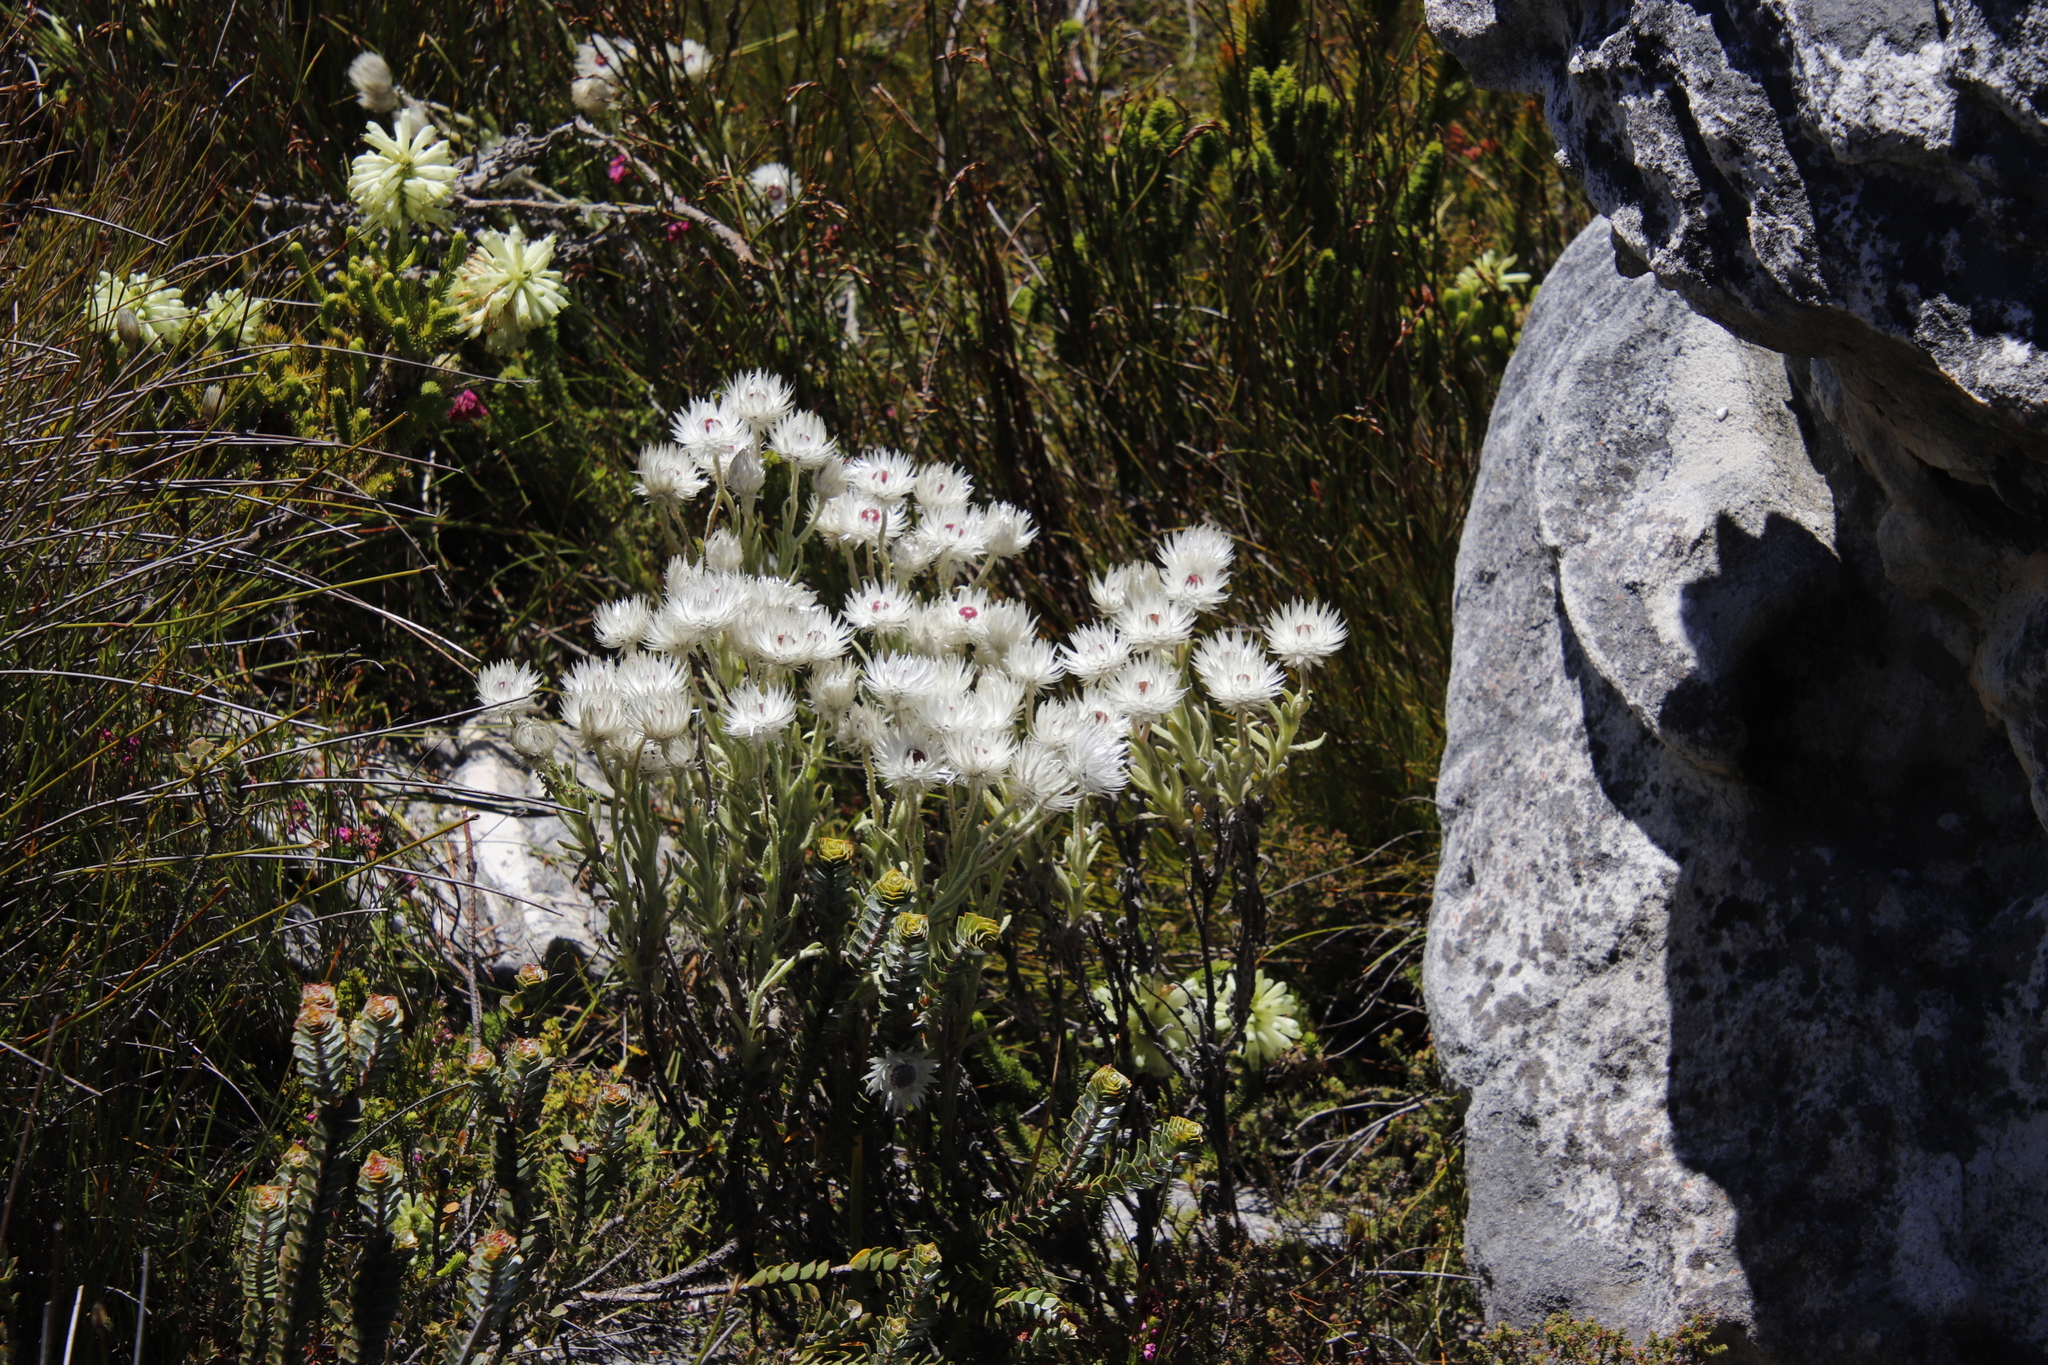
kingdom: Plantae
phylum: Tracheophyta
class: Magnoliopsida
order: Asterales
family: Asteraceae
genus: Syncarpha
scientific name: Syncarpha vestita
